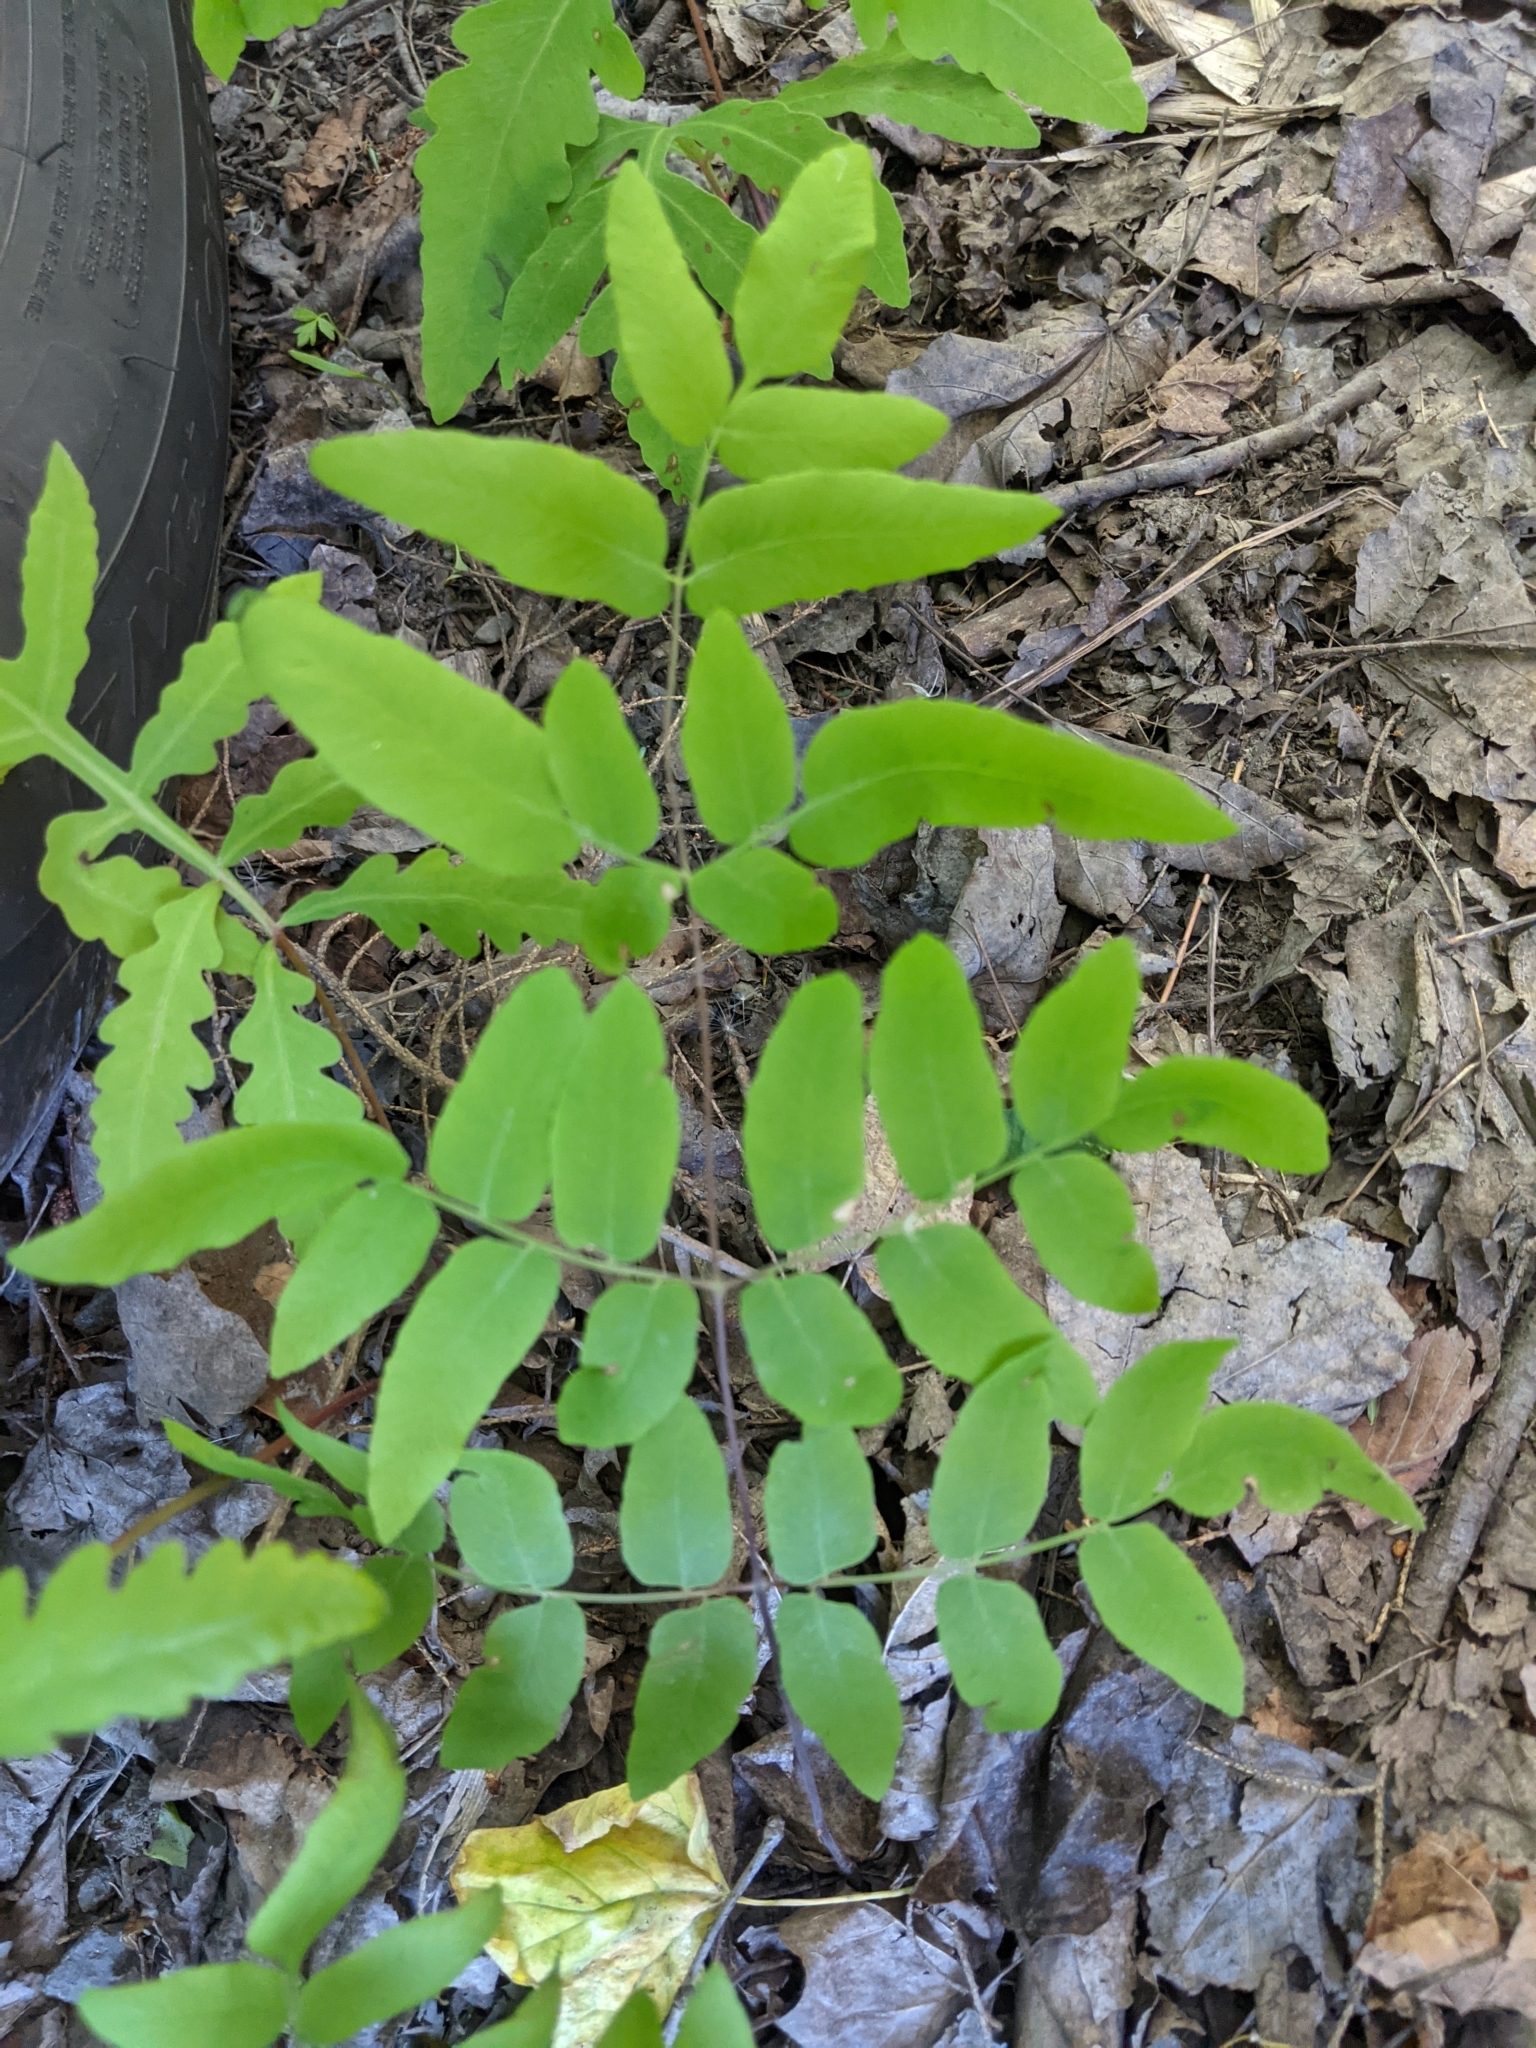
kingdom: Plantae
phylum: Tracheophyta
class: Polypodiopsida
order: Osmundales
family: Osmundaceae
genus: Osmunda
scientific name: Osmunda spectabilis
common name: American royal fern
